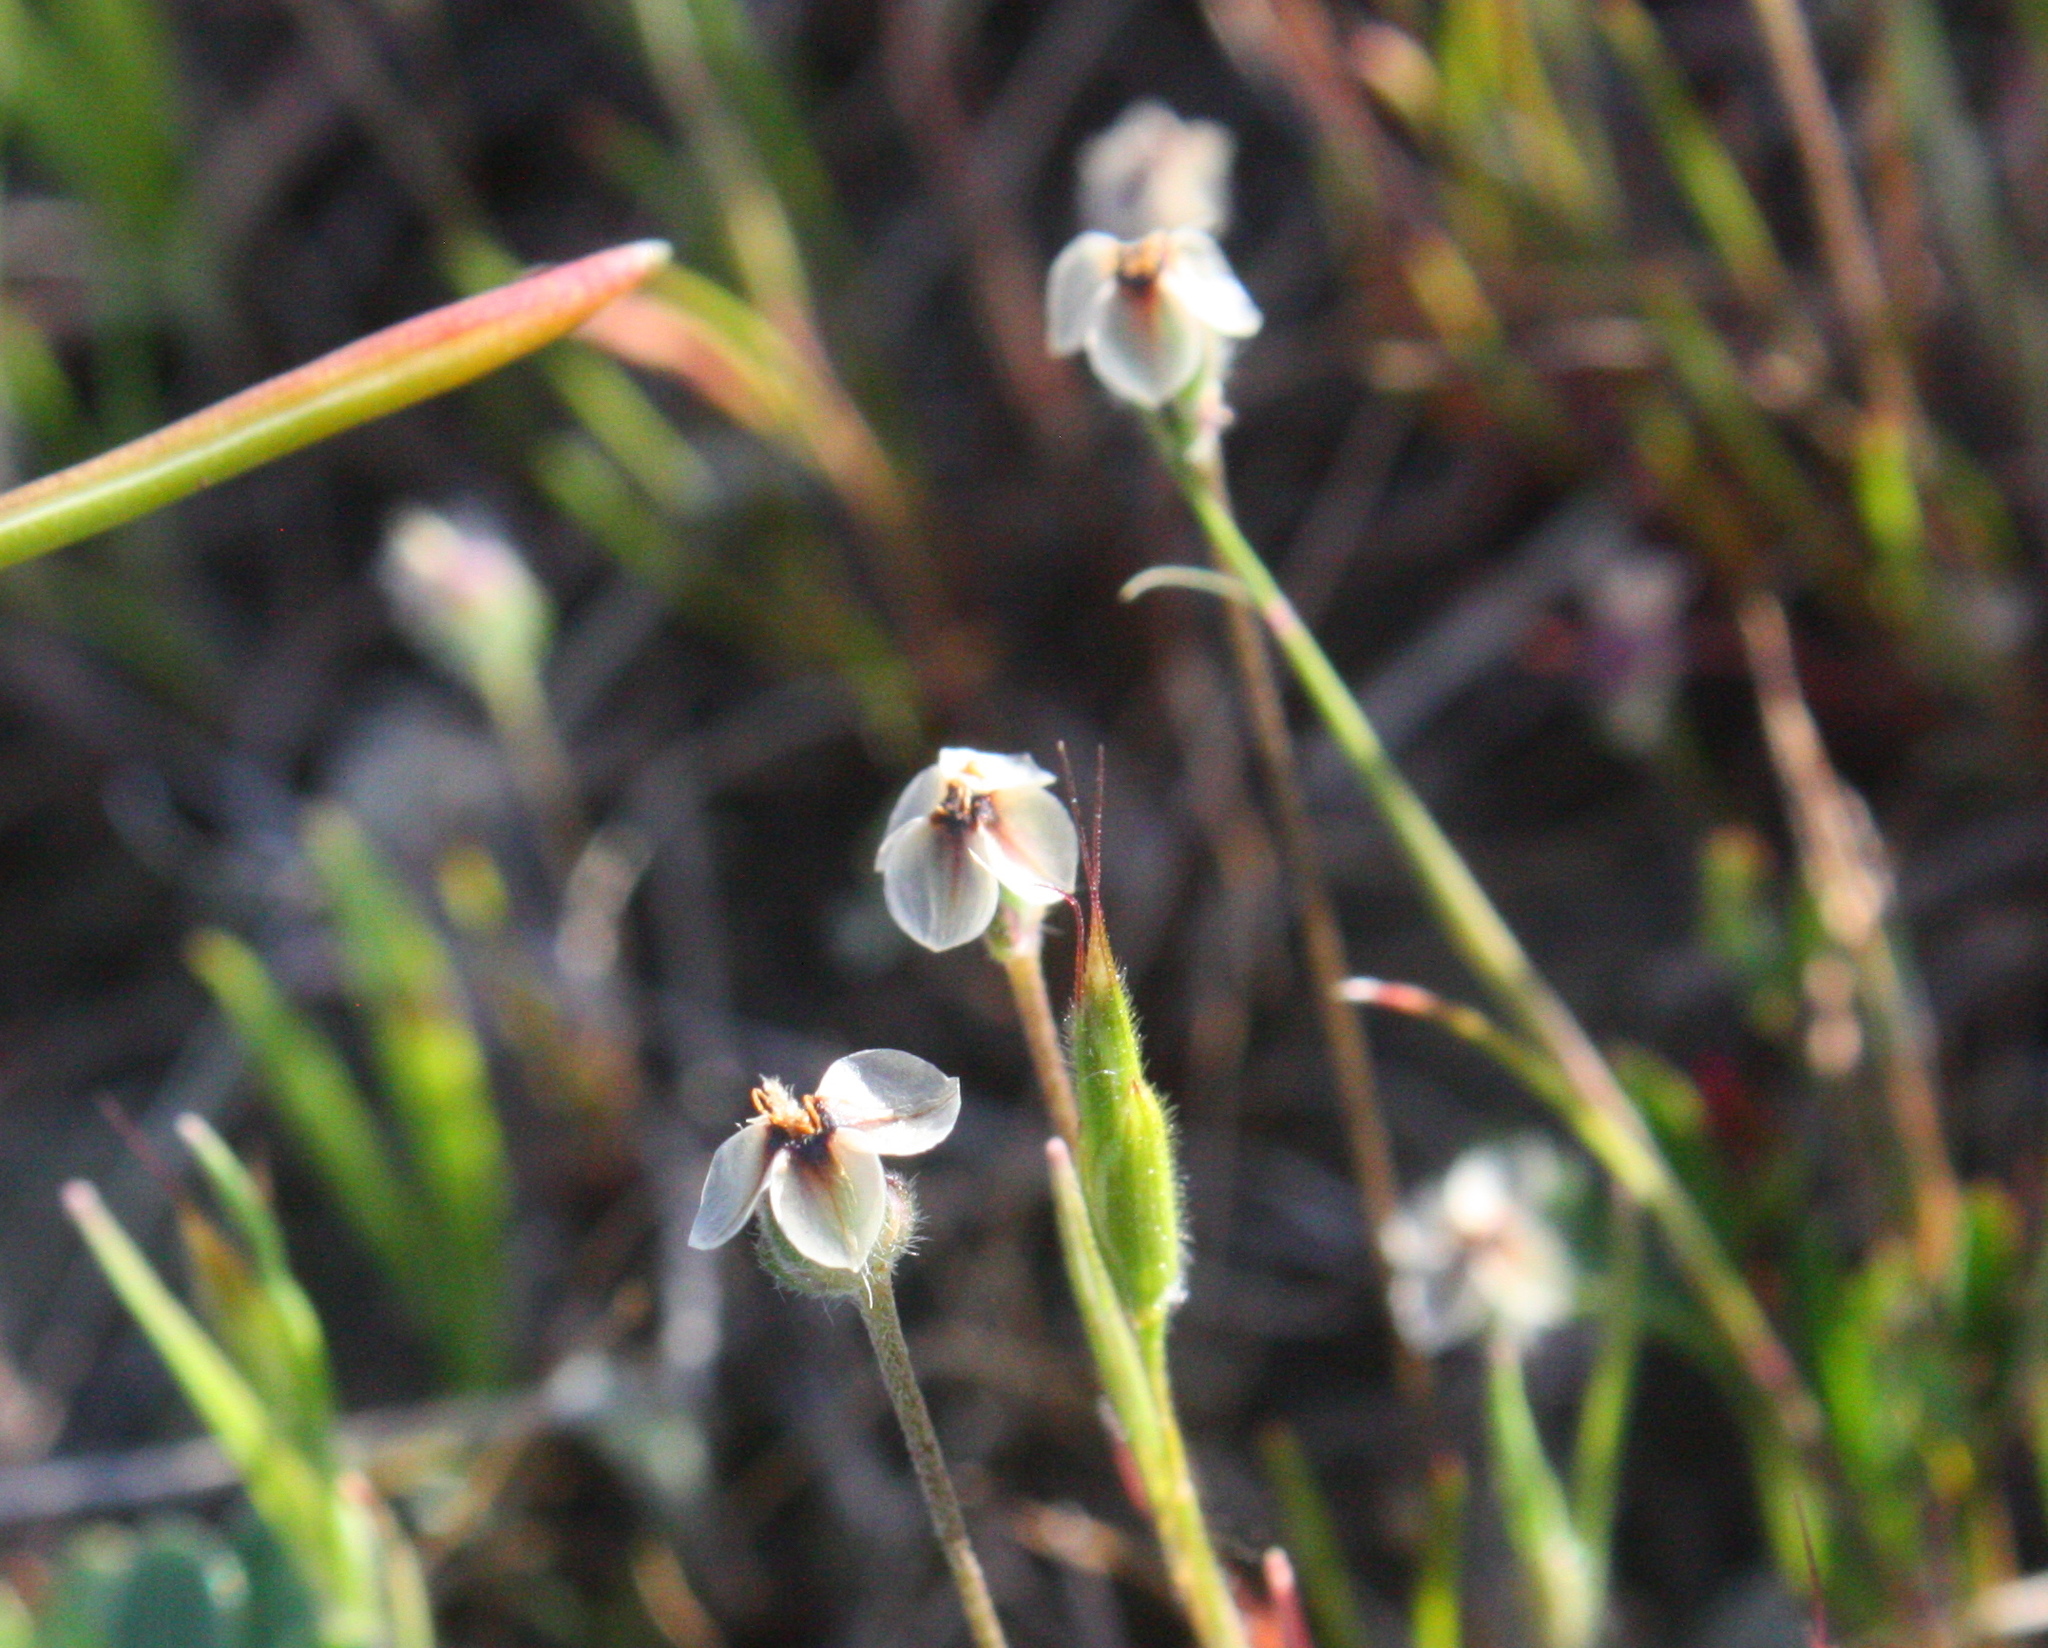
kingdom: Plantae
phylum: Tracheophyta
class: Magnoliopsida
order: Lamiales
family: Plantaginaceae
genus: Plantago
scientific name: Plantago erecta
